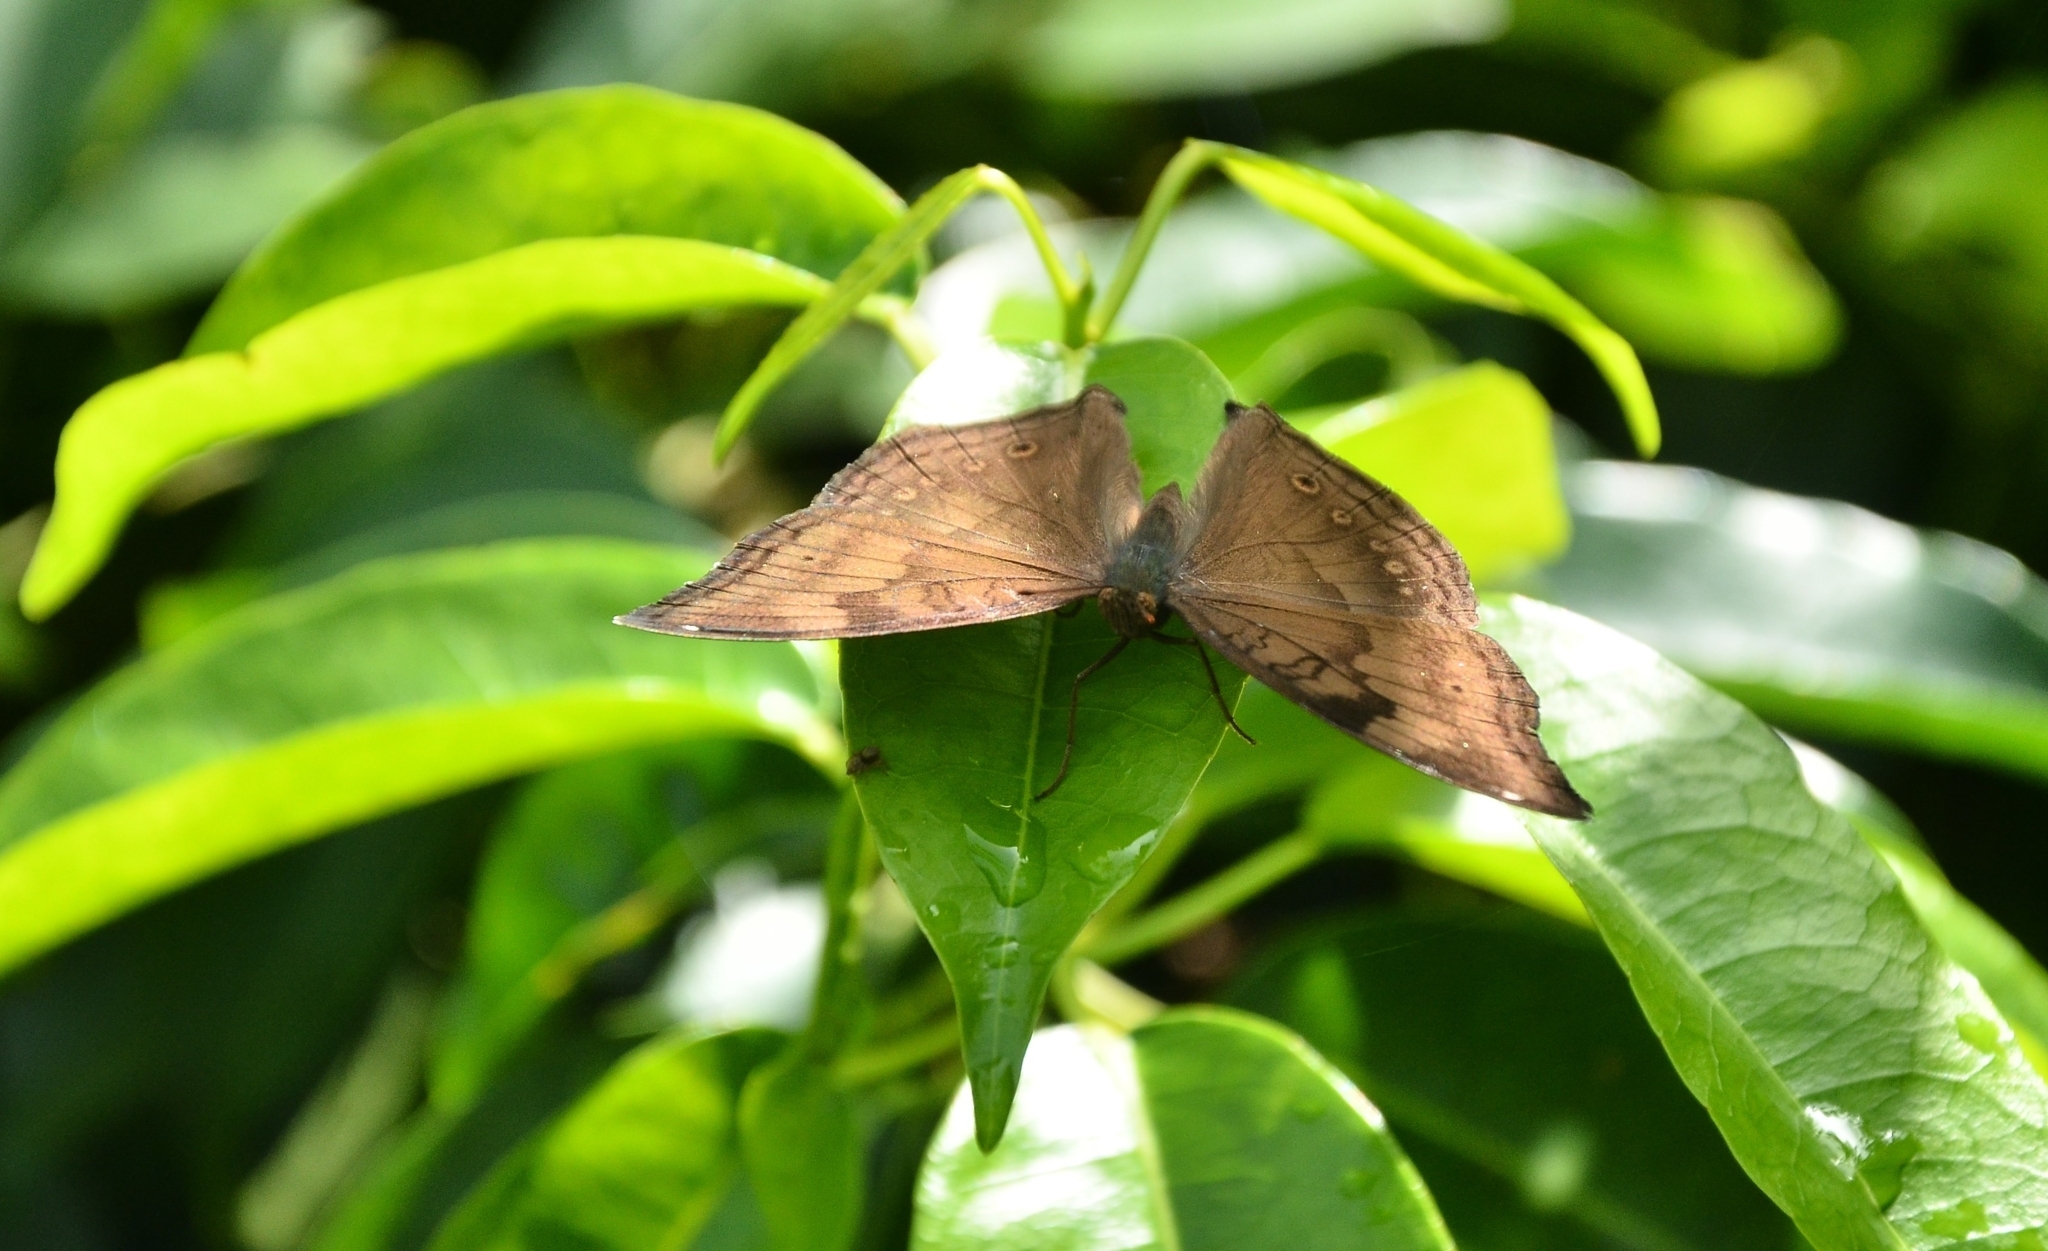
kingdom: Animalia
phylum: Arthropoda
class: Insecta
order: Lepidoptera
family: Nymphalidae
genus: Junonia
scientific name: Junonia iphita
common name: Chocolate pansy
